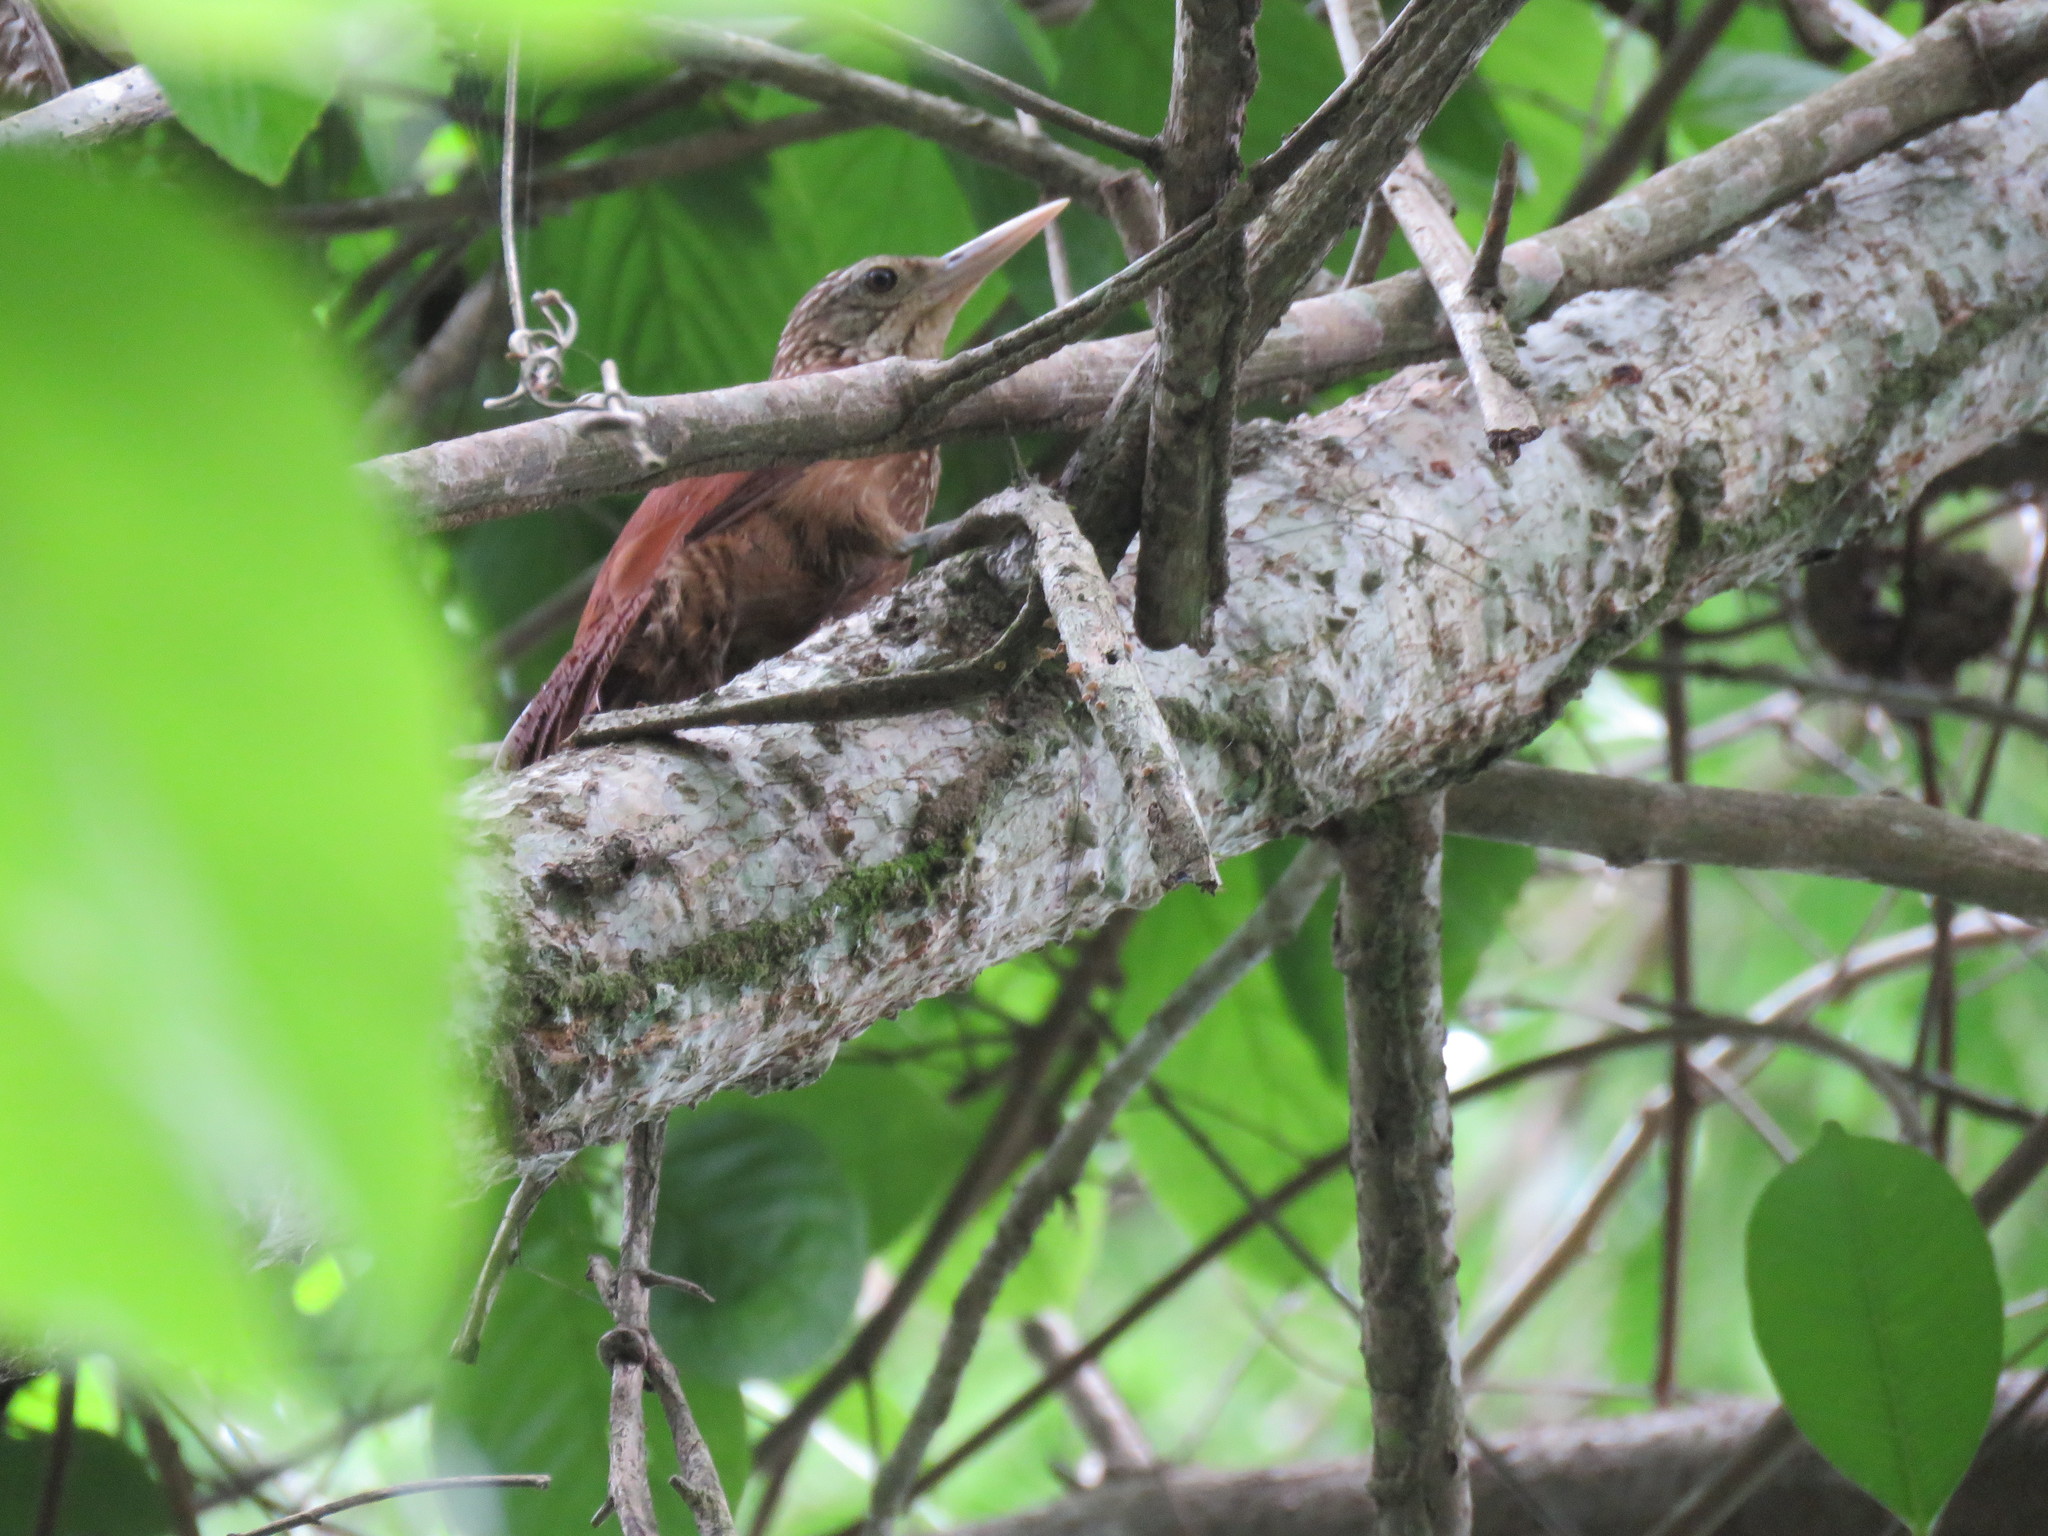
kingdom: Animalia
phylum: Chordata
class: Aves
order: Passeriformes
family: Furnariidae
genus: Xiphorhynchus
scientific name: Xiphorhynchus picus
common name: Straight-billed woodcreeper
